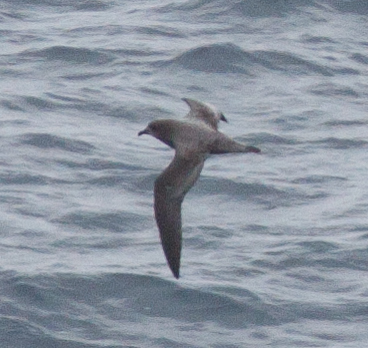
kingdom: Animalia
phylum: Chordata
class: Aves
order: Procellariiformes
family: Procellariidae
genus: Pterodroma
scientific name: Pterodroma ultima
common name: Murphy's petrel
